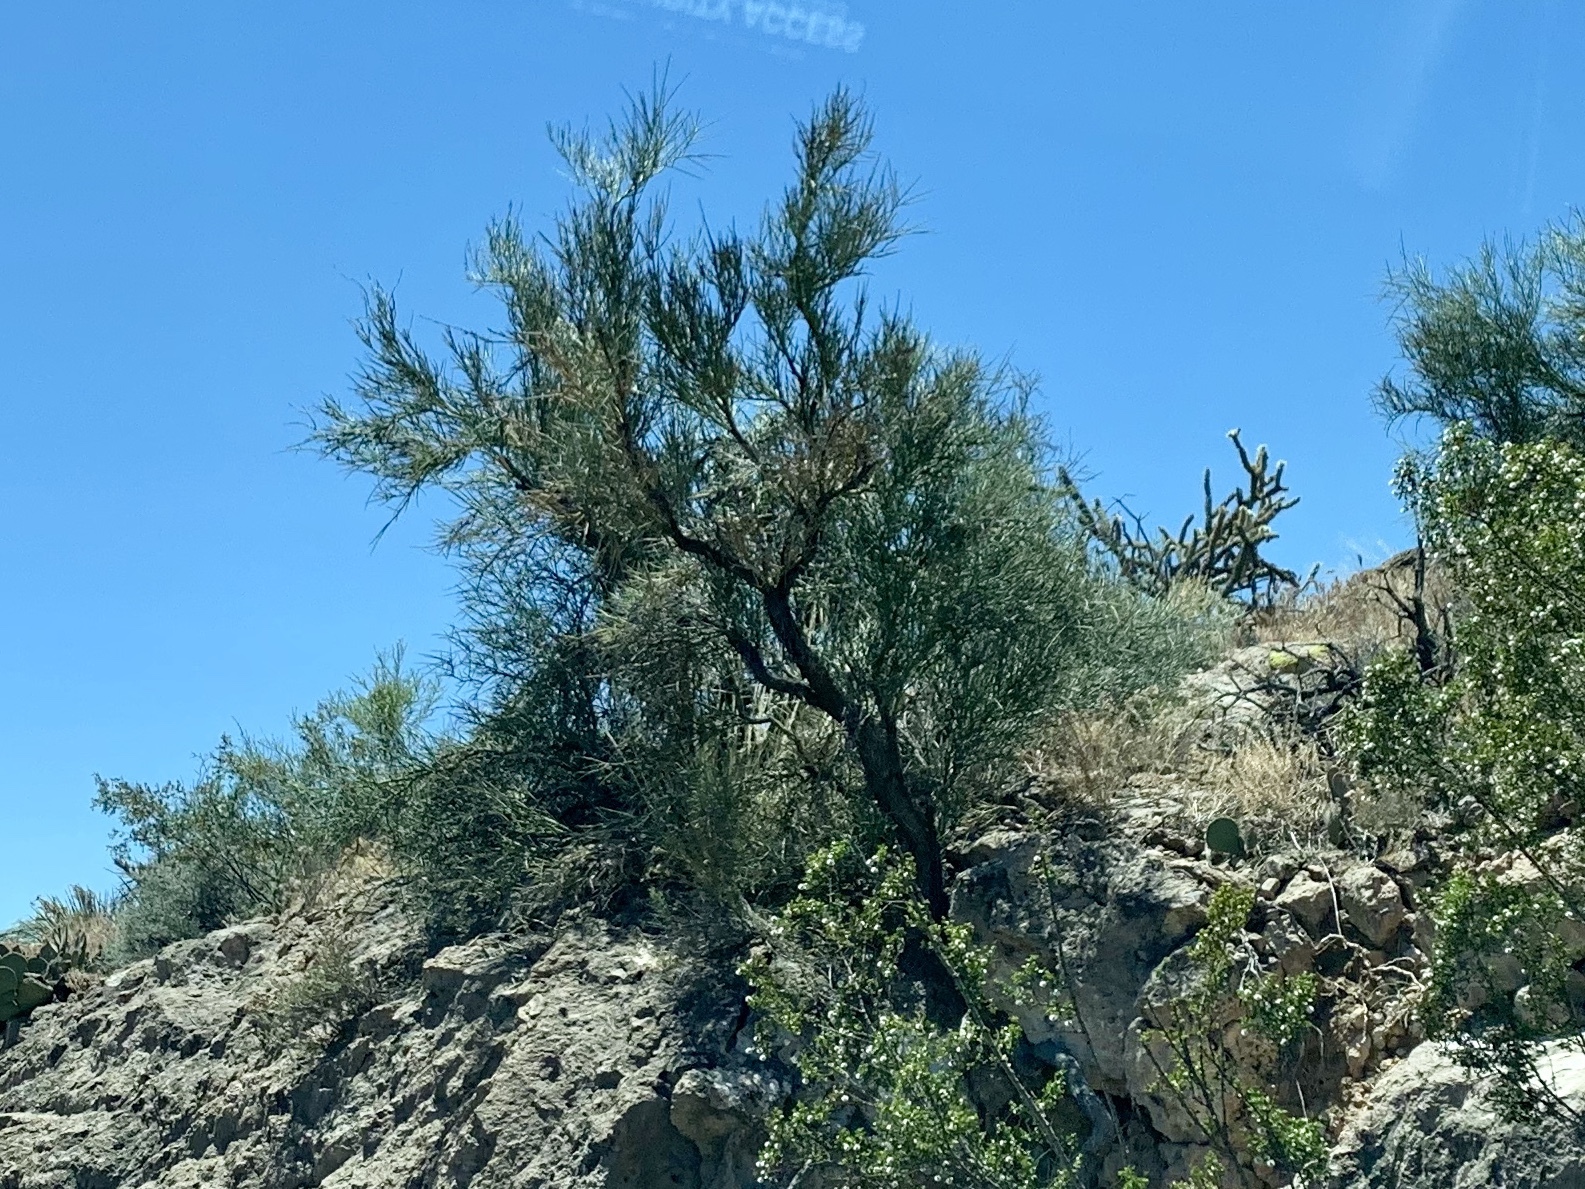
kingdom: Plantae
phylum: Tracheophyta
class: Magnoliopsida
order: Celastrales
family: Celastraceae
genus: Canotia
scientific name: Canotia holacantha
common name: Crucifixion thorns
